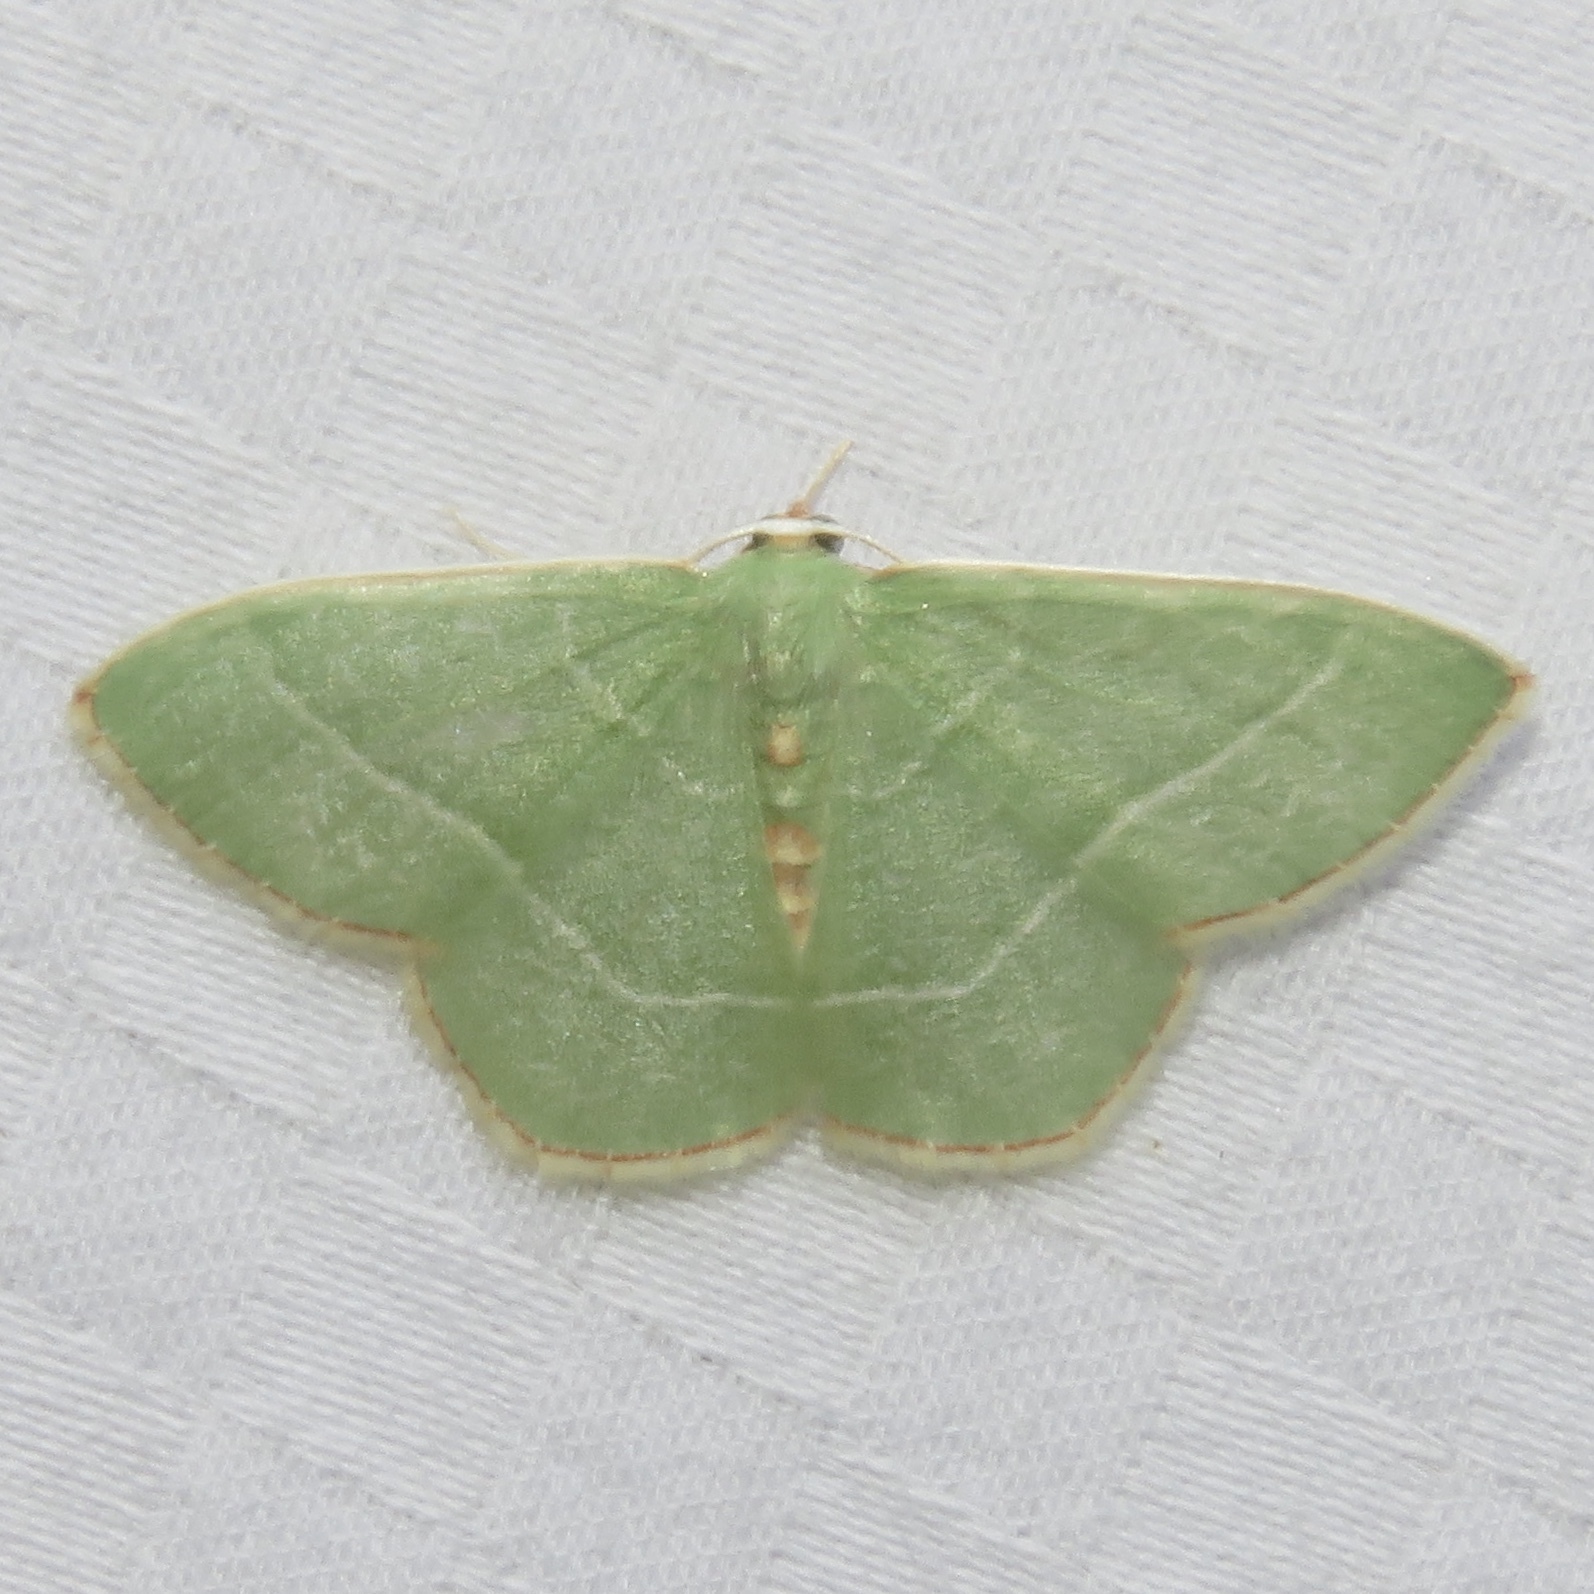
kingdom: Animalia
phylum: Arthropoda
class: Insecta
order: Lepidoptera
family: Geometridae
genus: Nemoria
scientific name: Nemoria bistriaria
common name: Red-fringed emerald
